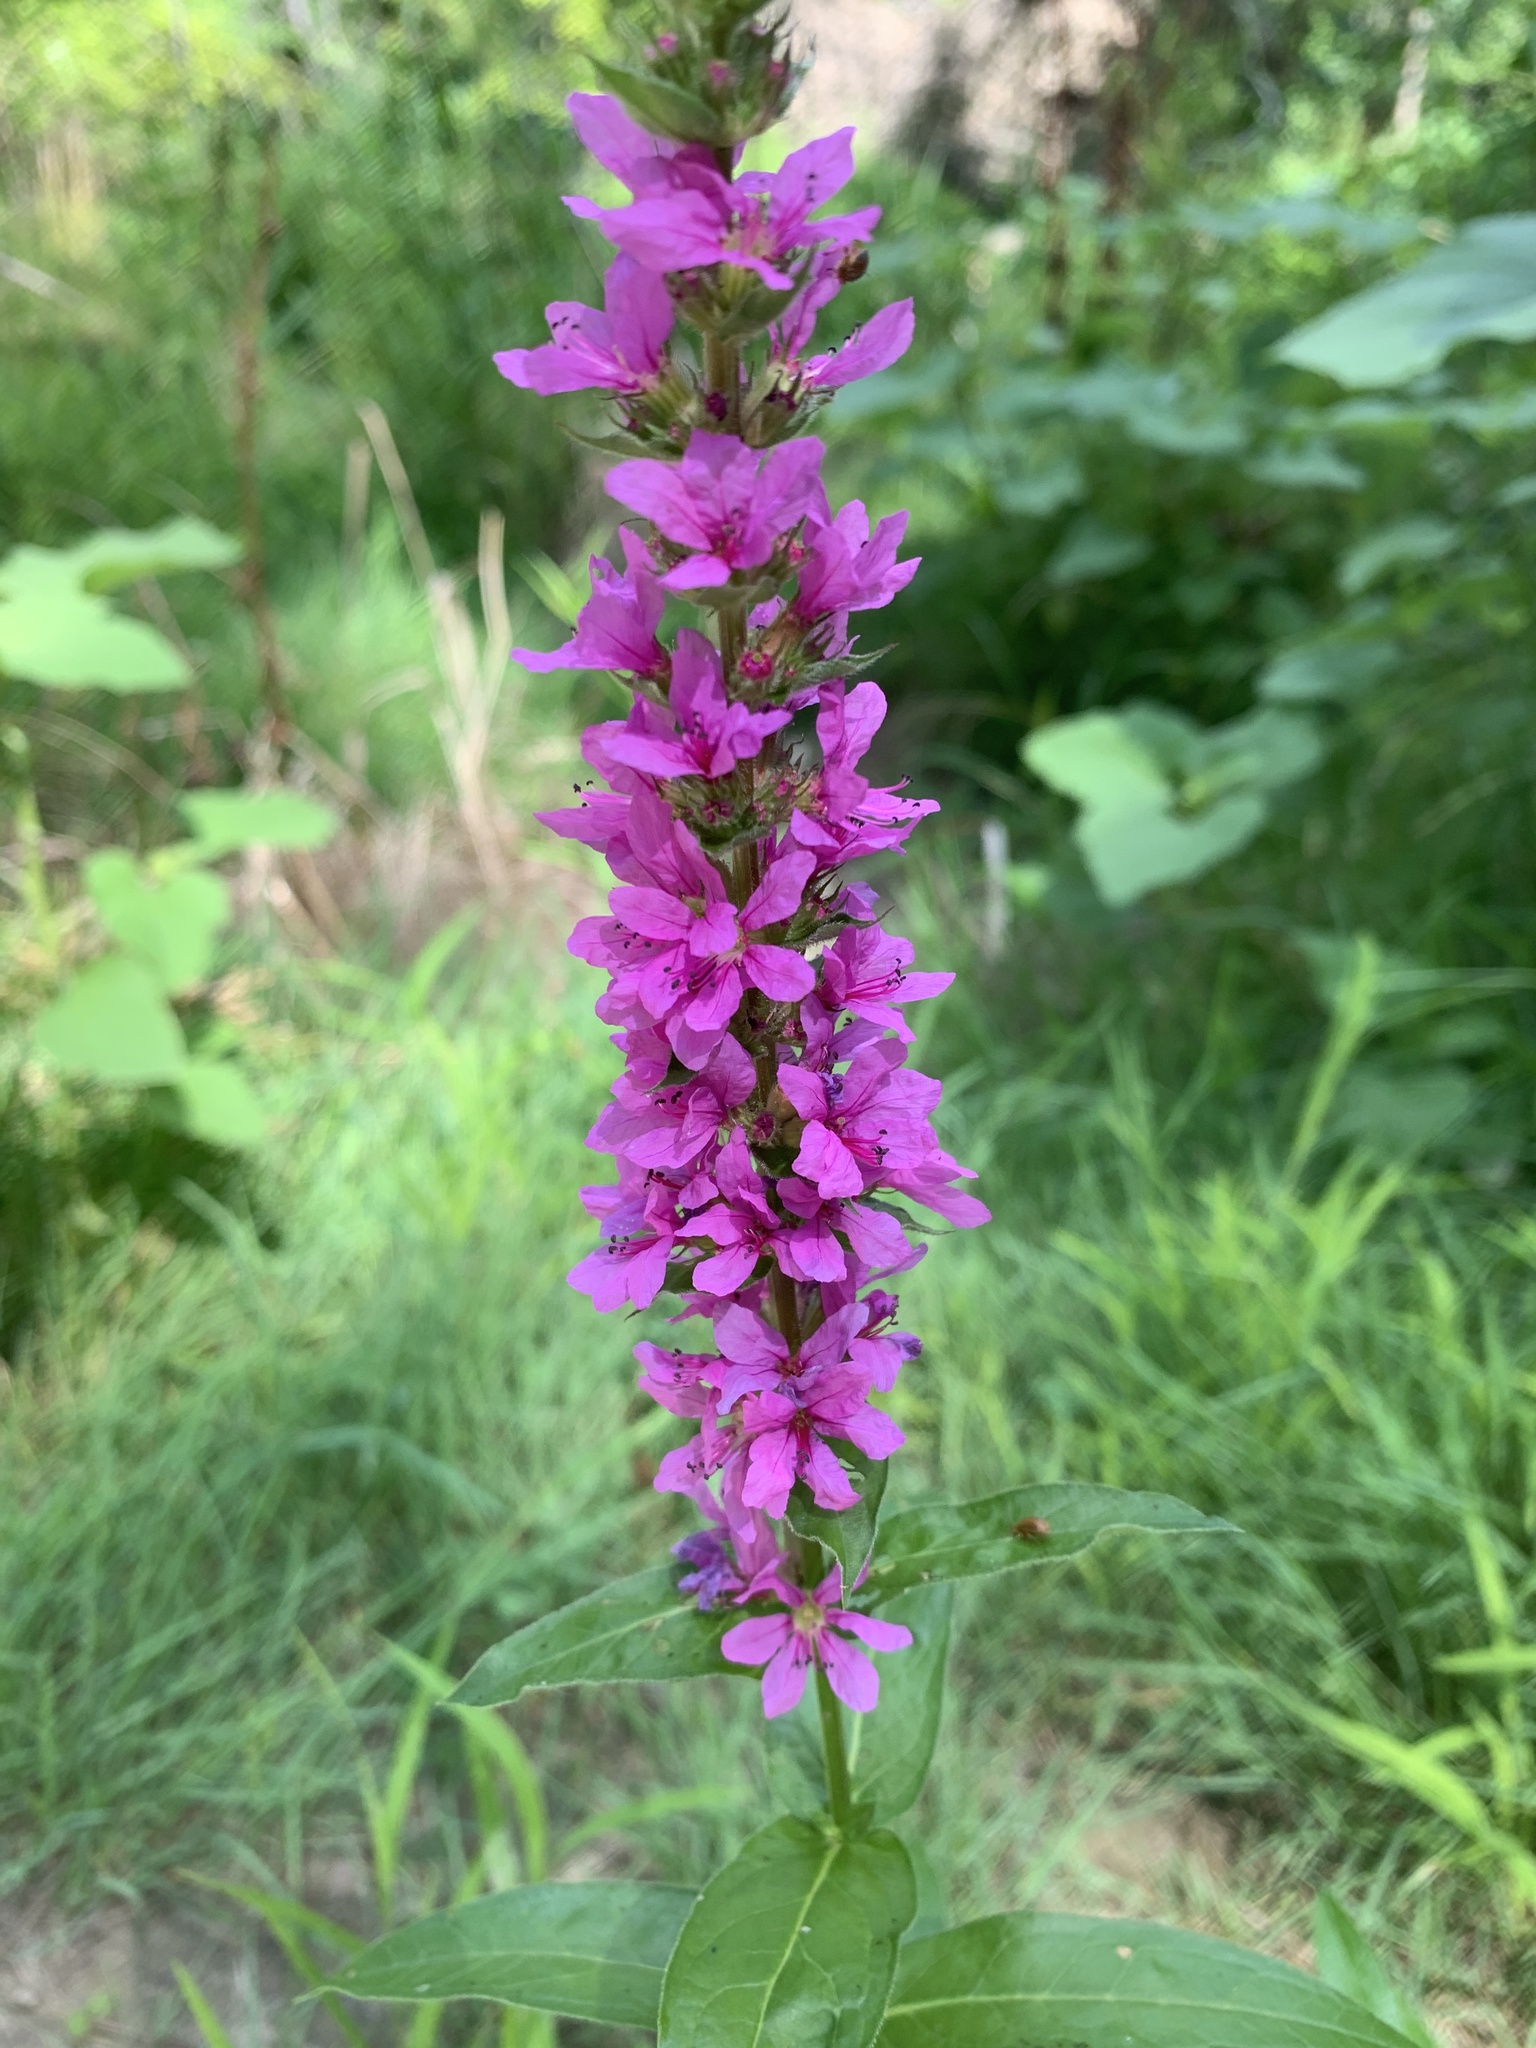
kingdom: Plantae
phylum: Tracheophyta
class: Magnoliopsida
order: Myrtales
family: Lythraceae
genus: Lythrum
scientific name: Lythrum salicaria
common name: Purple loosestrife
